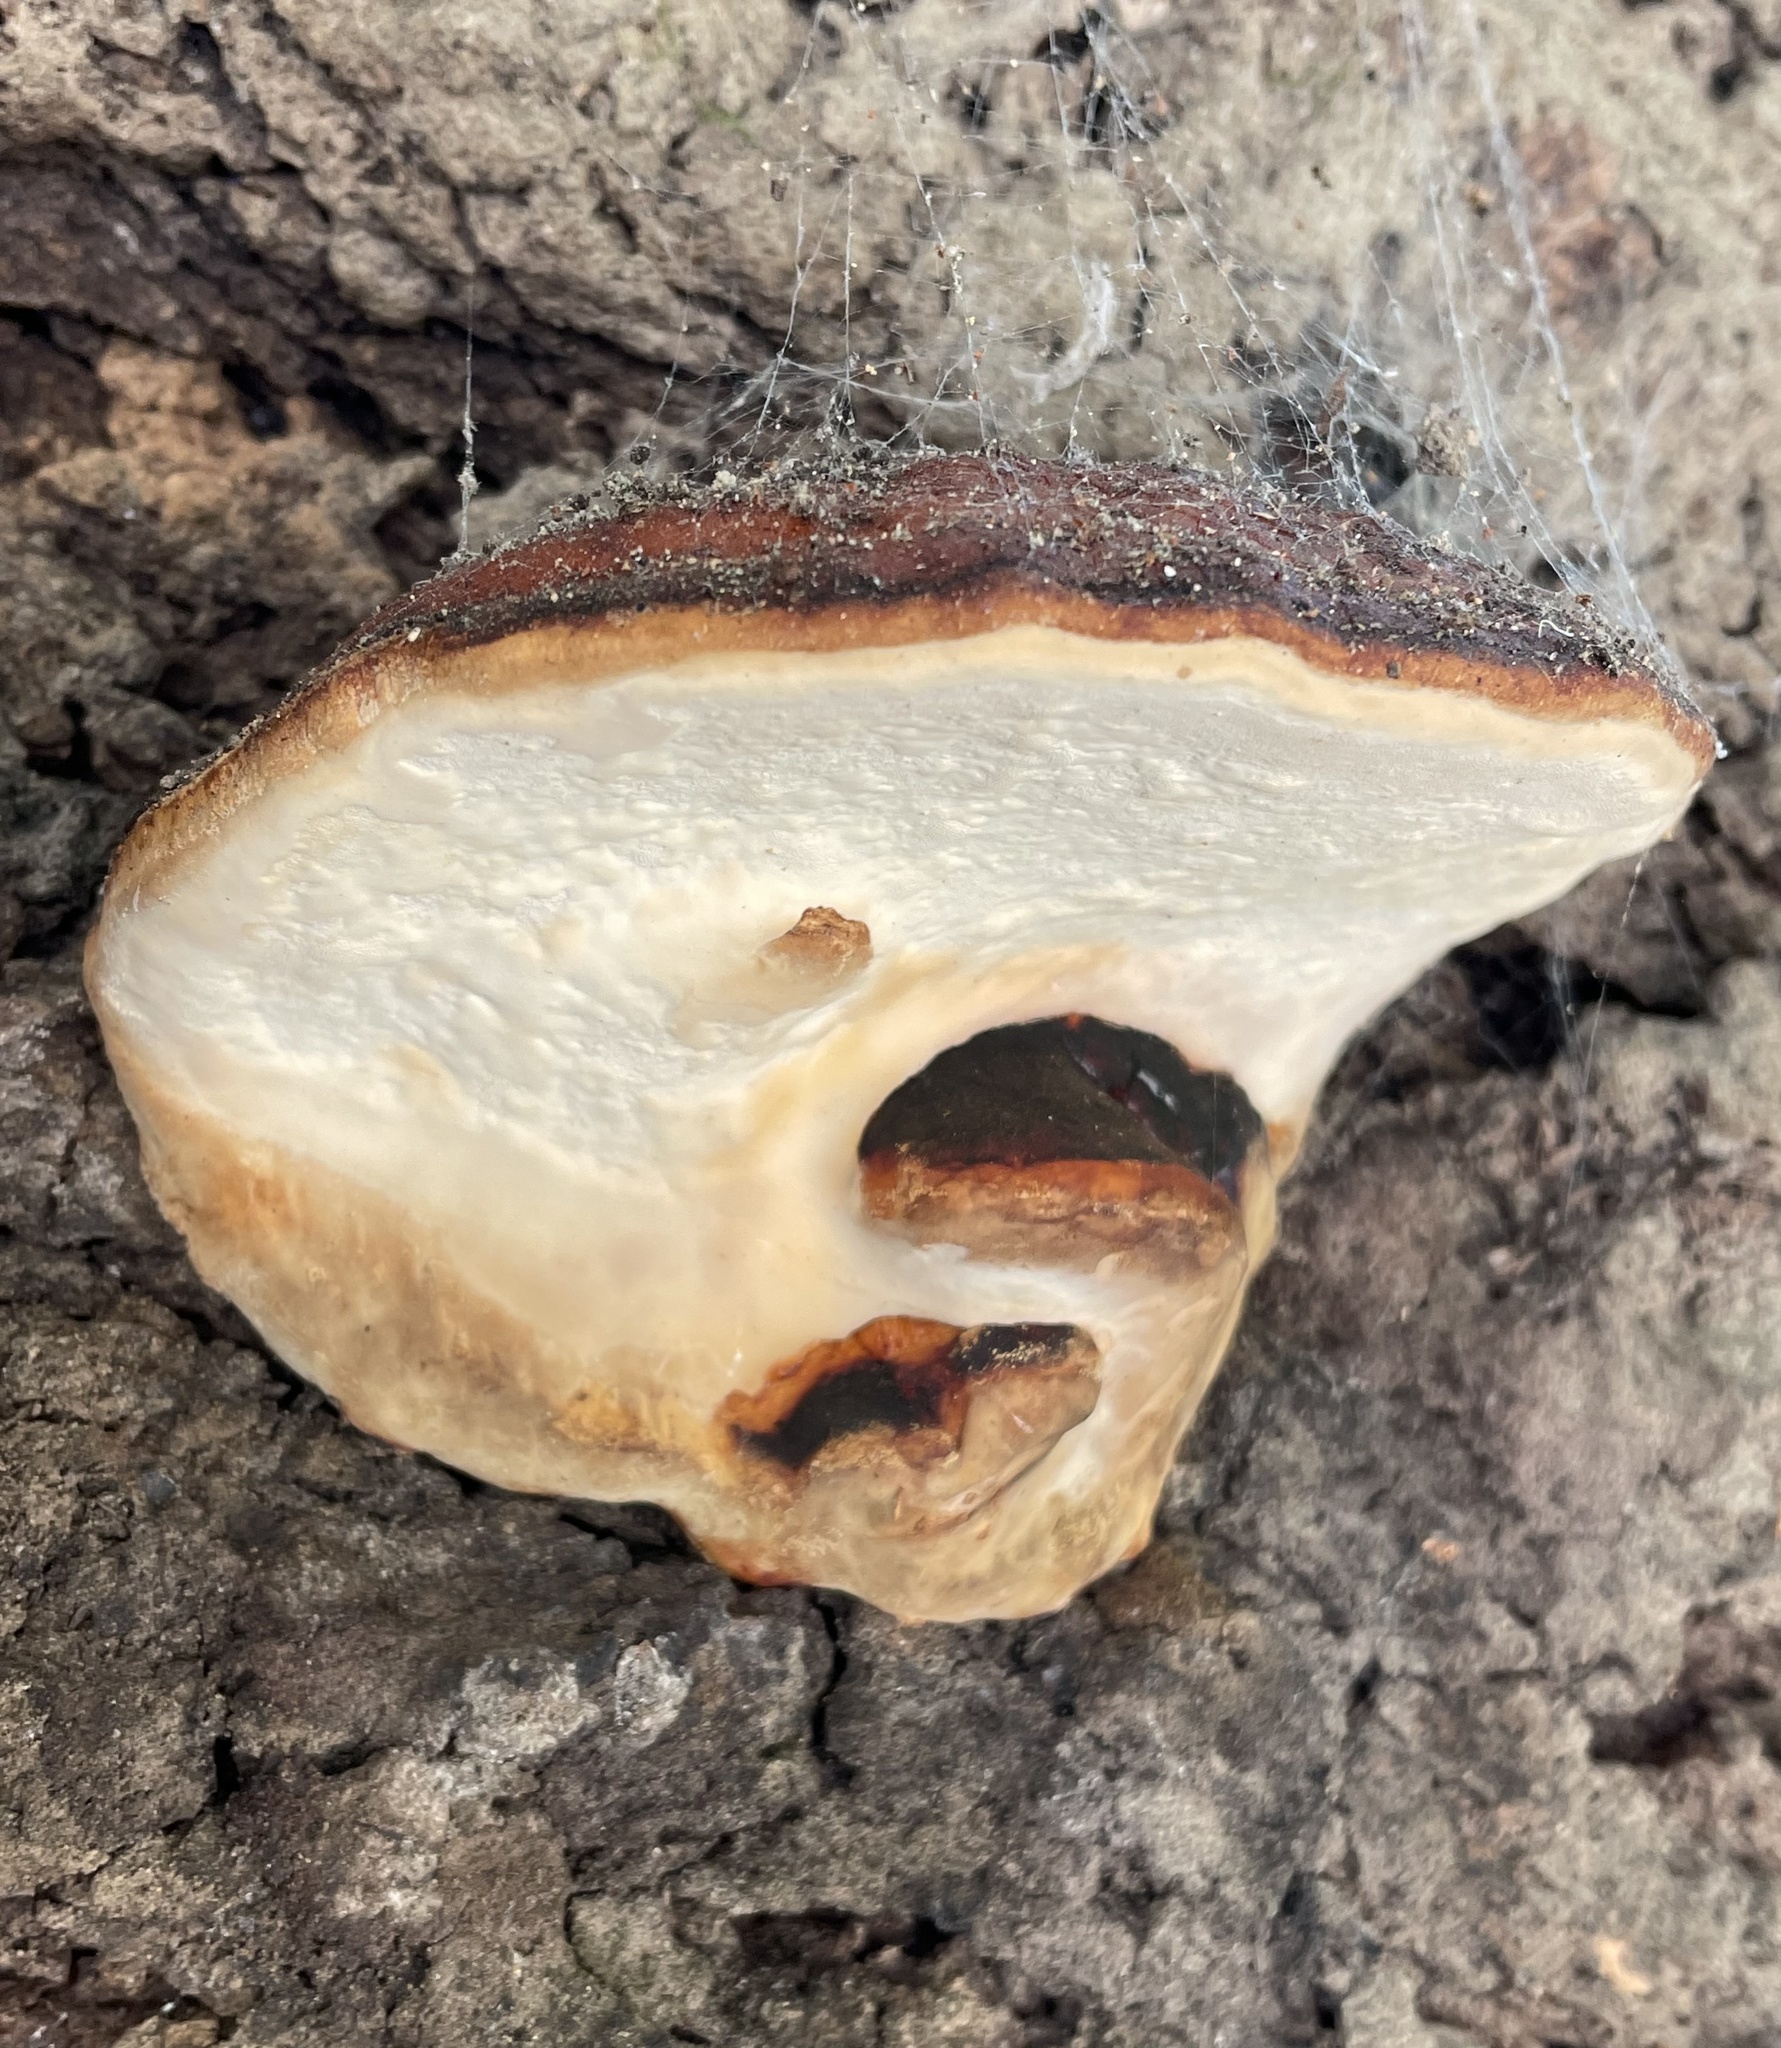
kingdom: Fungi
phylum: Basidiomycota
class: Agaricomycetes
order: Polyporales
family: Fomitopsidaceae
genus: Fomitopsis
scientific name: Fomitopsis mounceae
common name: Northern red belt
